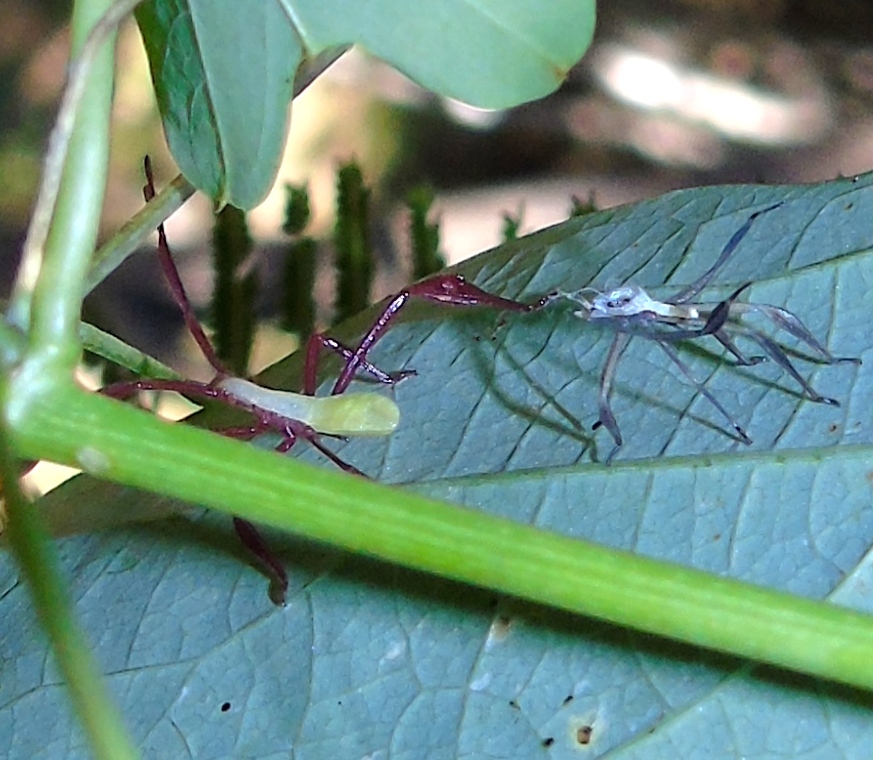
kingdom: Animalia
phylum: Arthropoda
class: Insecta
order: Hemiptera
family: Coreidae
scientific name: Coreidae
